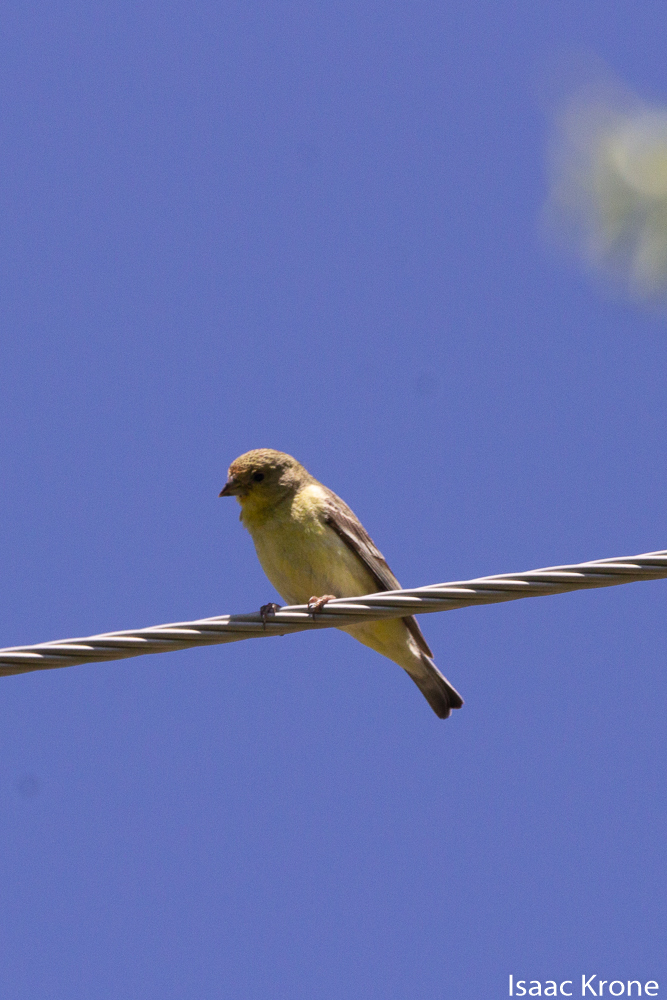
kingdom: Animalia
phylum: Chordata
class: Aves
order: Passeriformes
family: Fringillidae
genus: Spinus
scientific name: Spinus tristis
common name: American goldfinch
